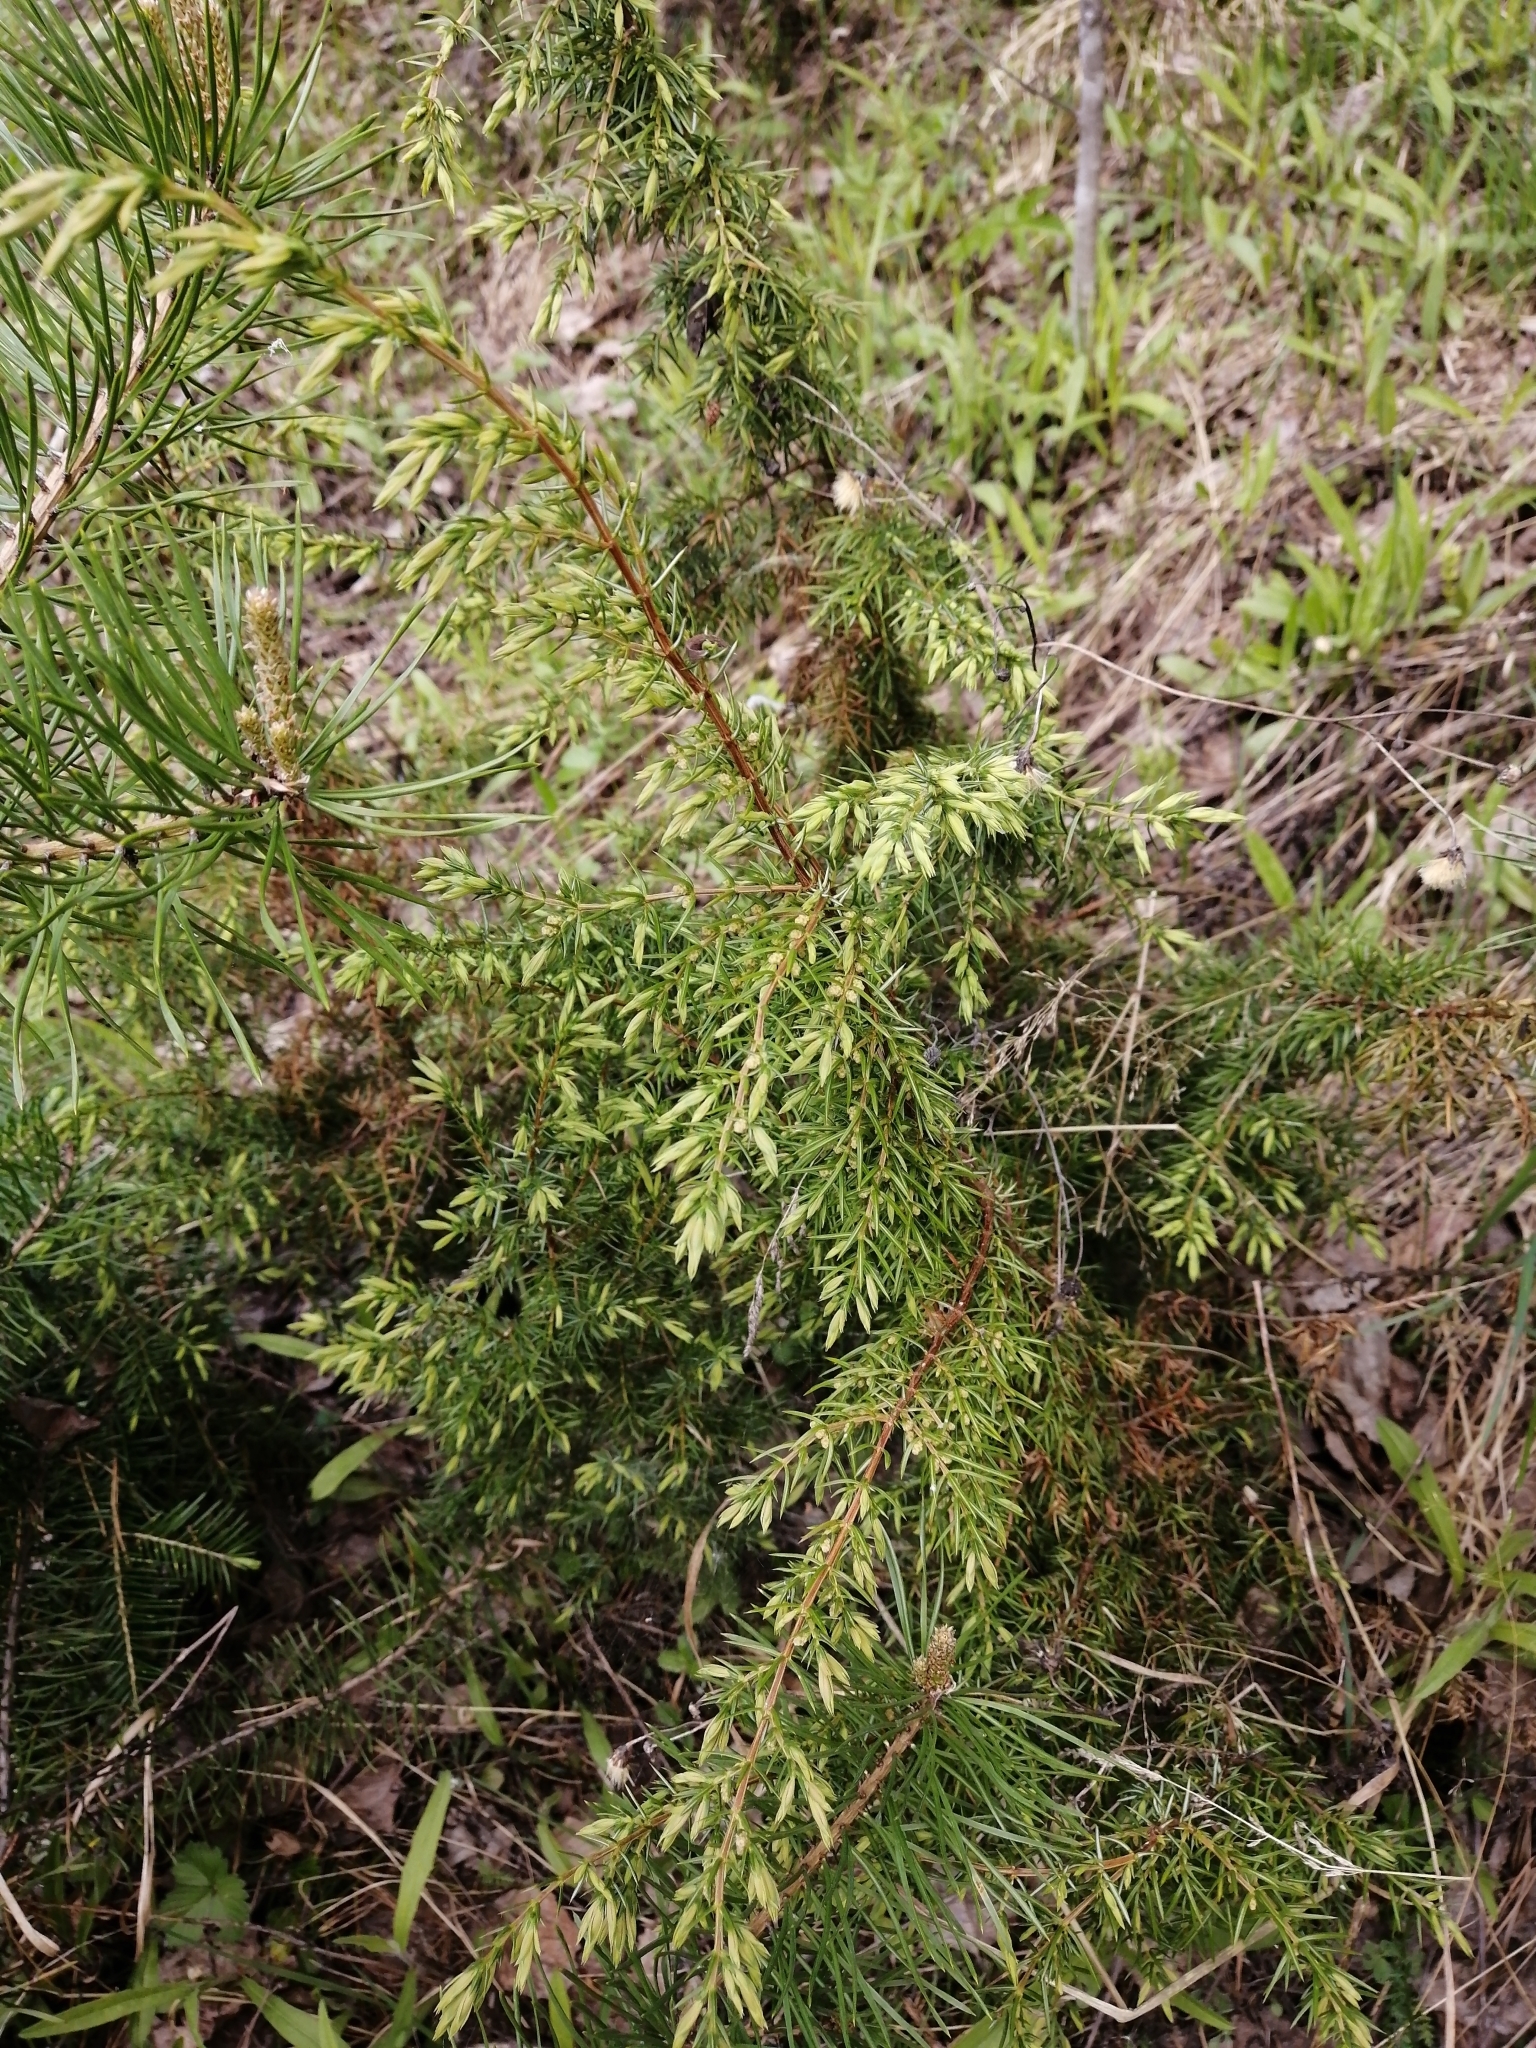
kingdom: Plantae
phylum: Tracheophyta
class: Pinopsida
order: Pinales
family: Cupressaceae
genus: Juniperus
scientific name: Juniperus communis
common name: Common juniper
